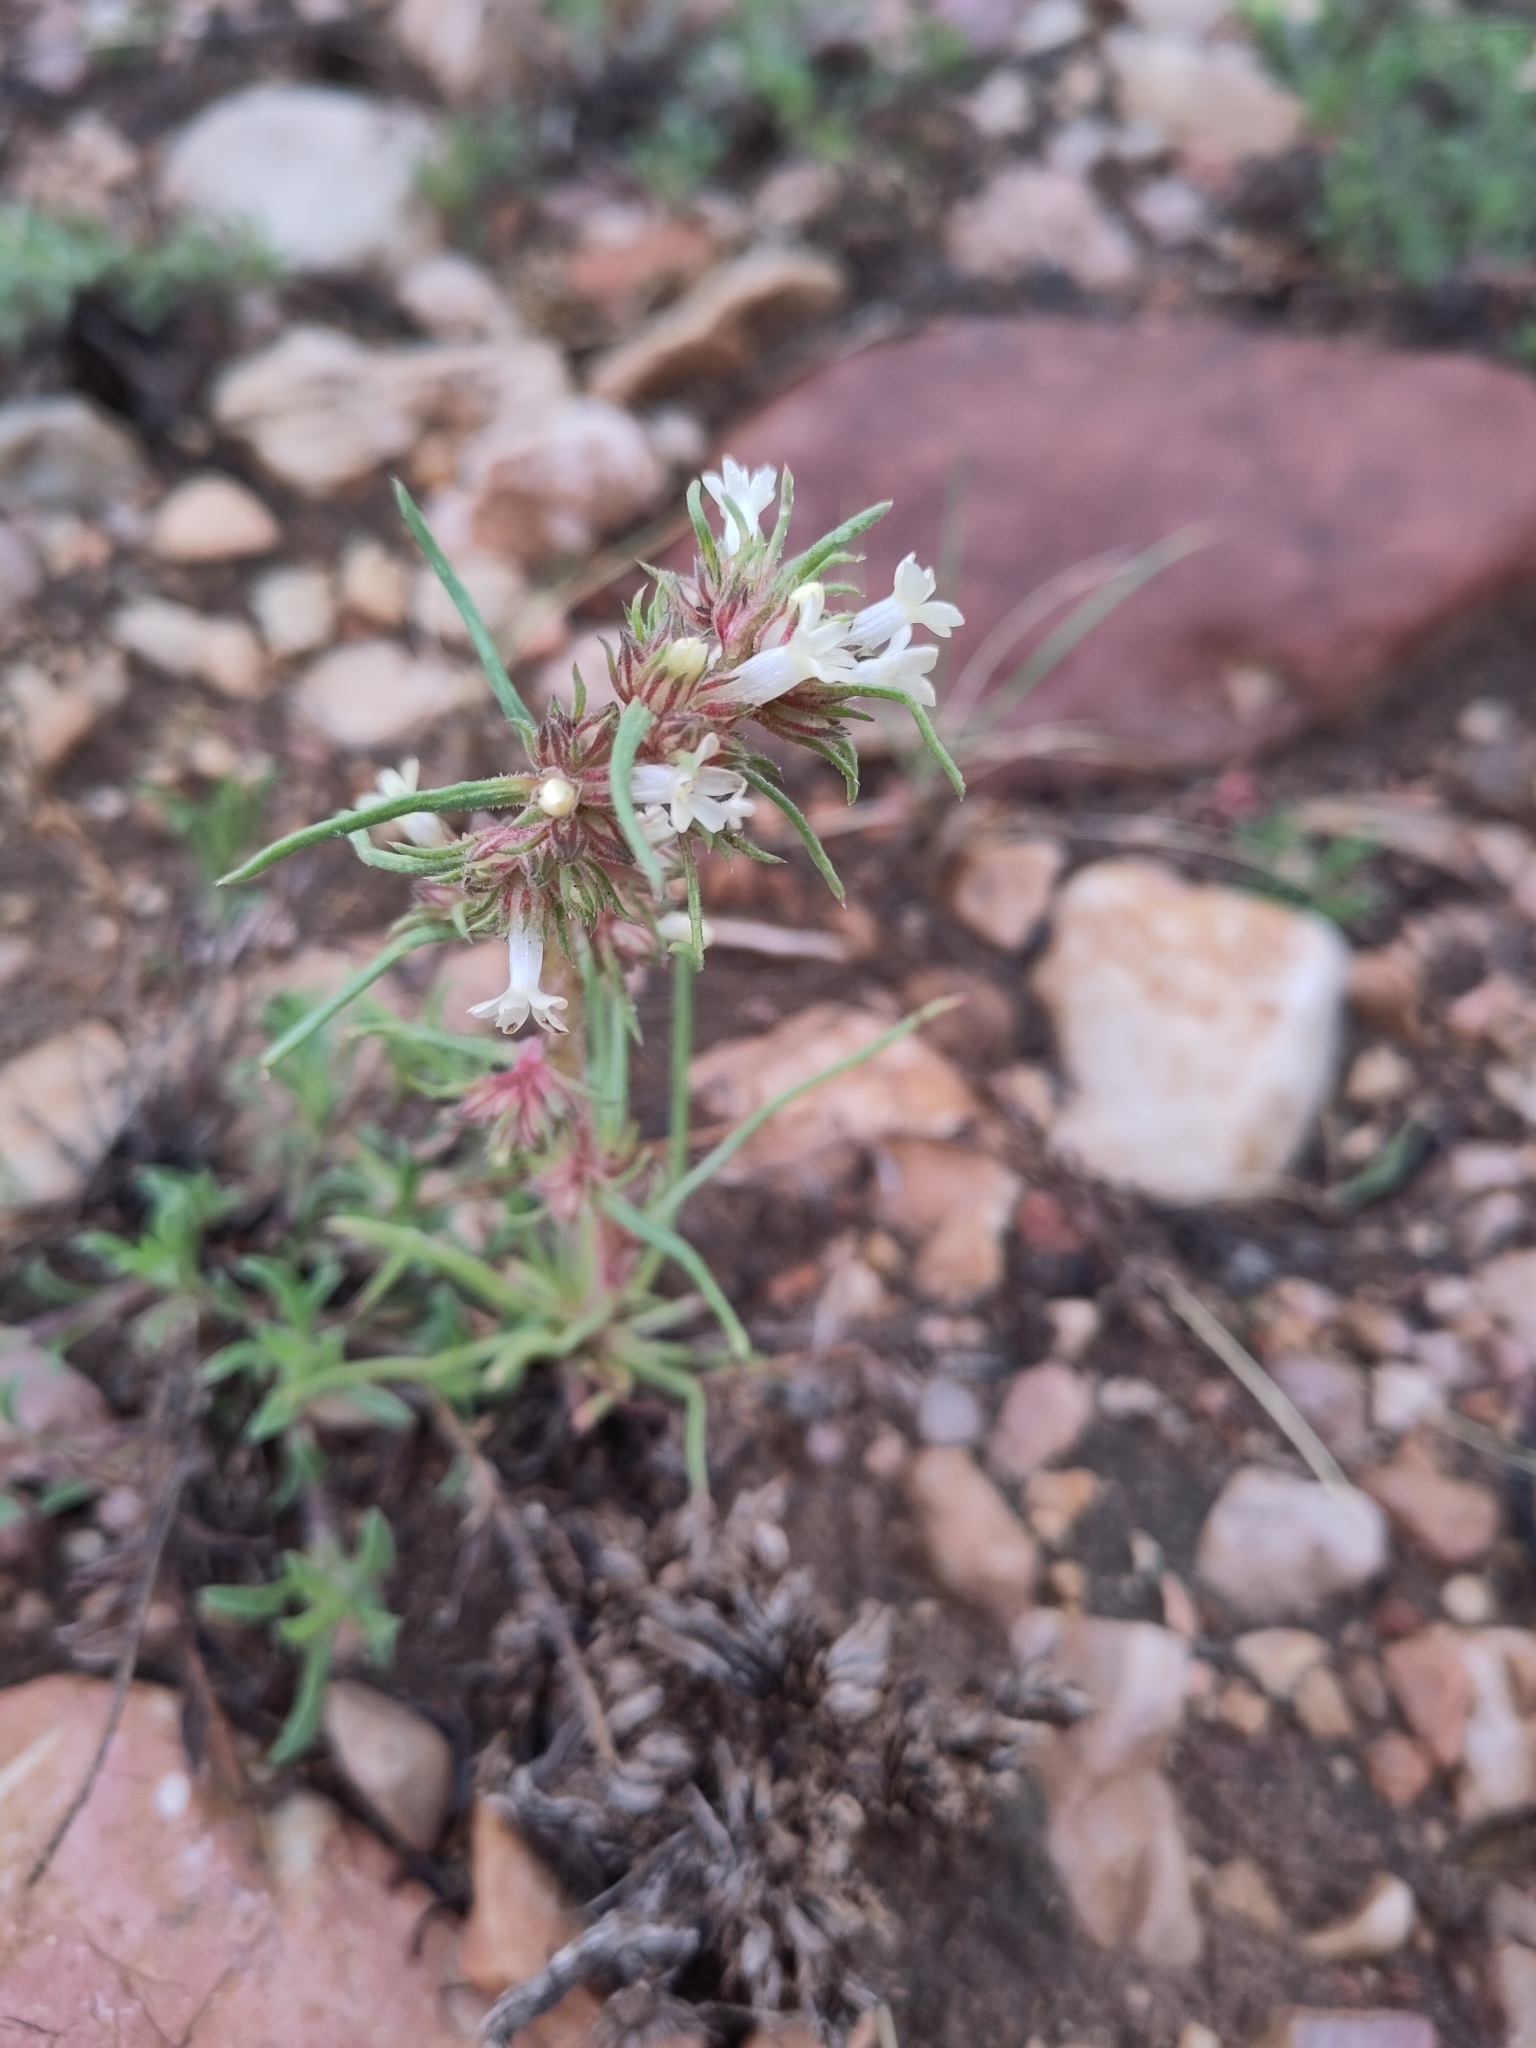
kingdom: Plantae
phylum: Tracheophyta
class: Magnoliopsida
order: Ericales
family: Polemoniaceae
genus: Ipomopsis
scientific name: Ipomopsis spicata
